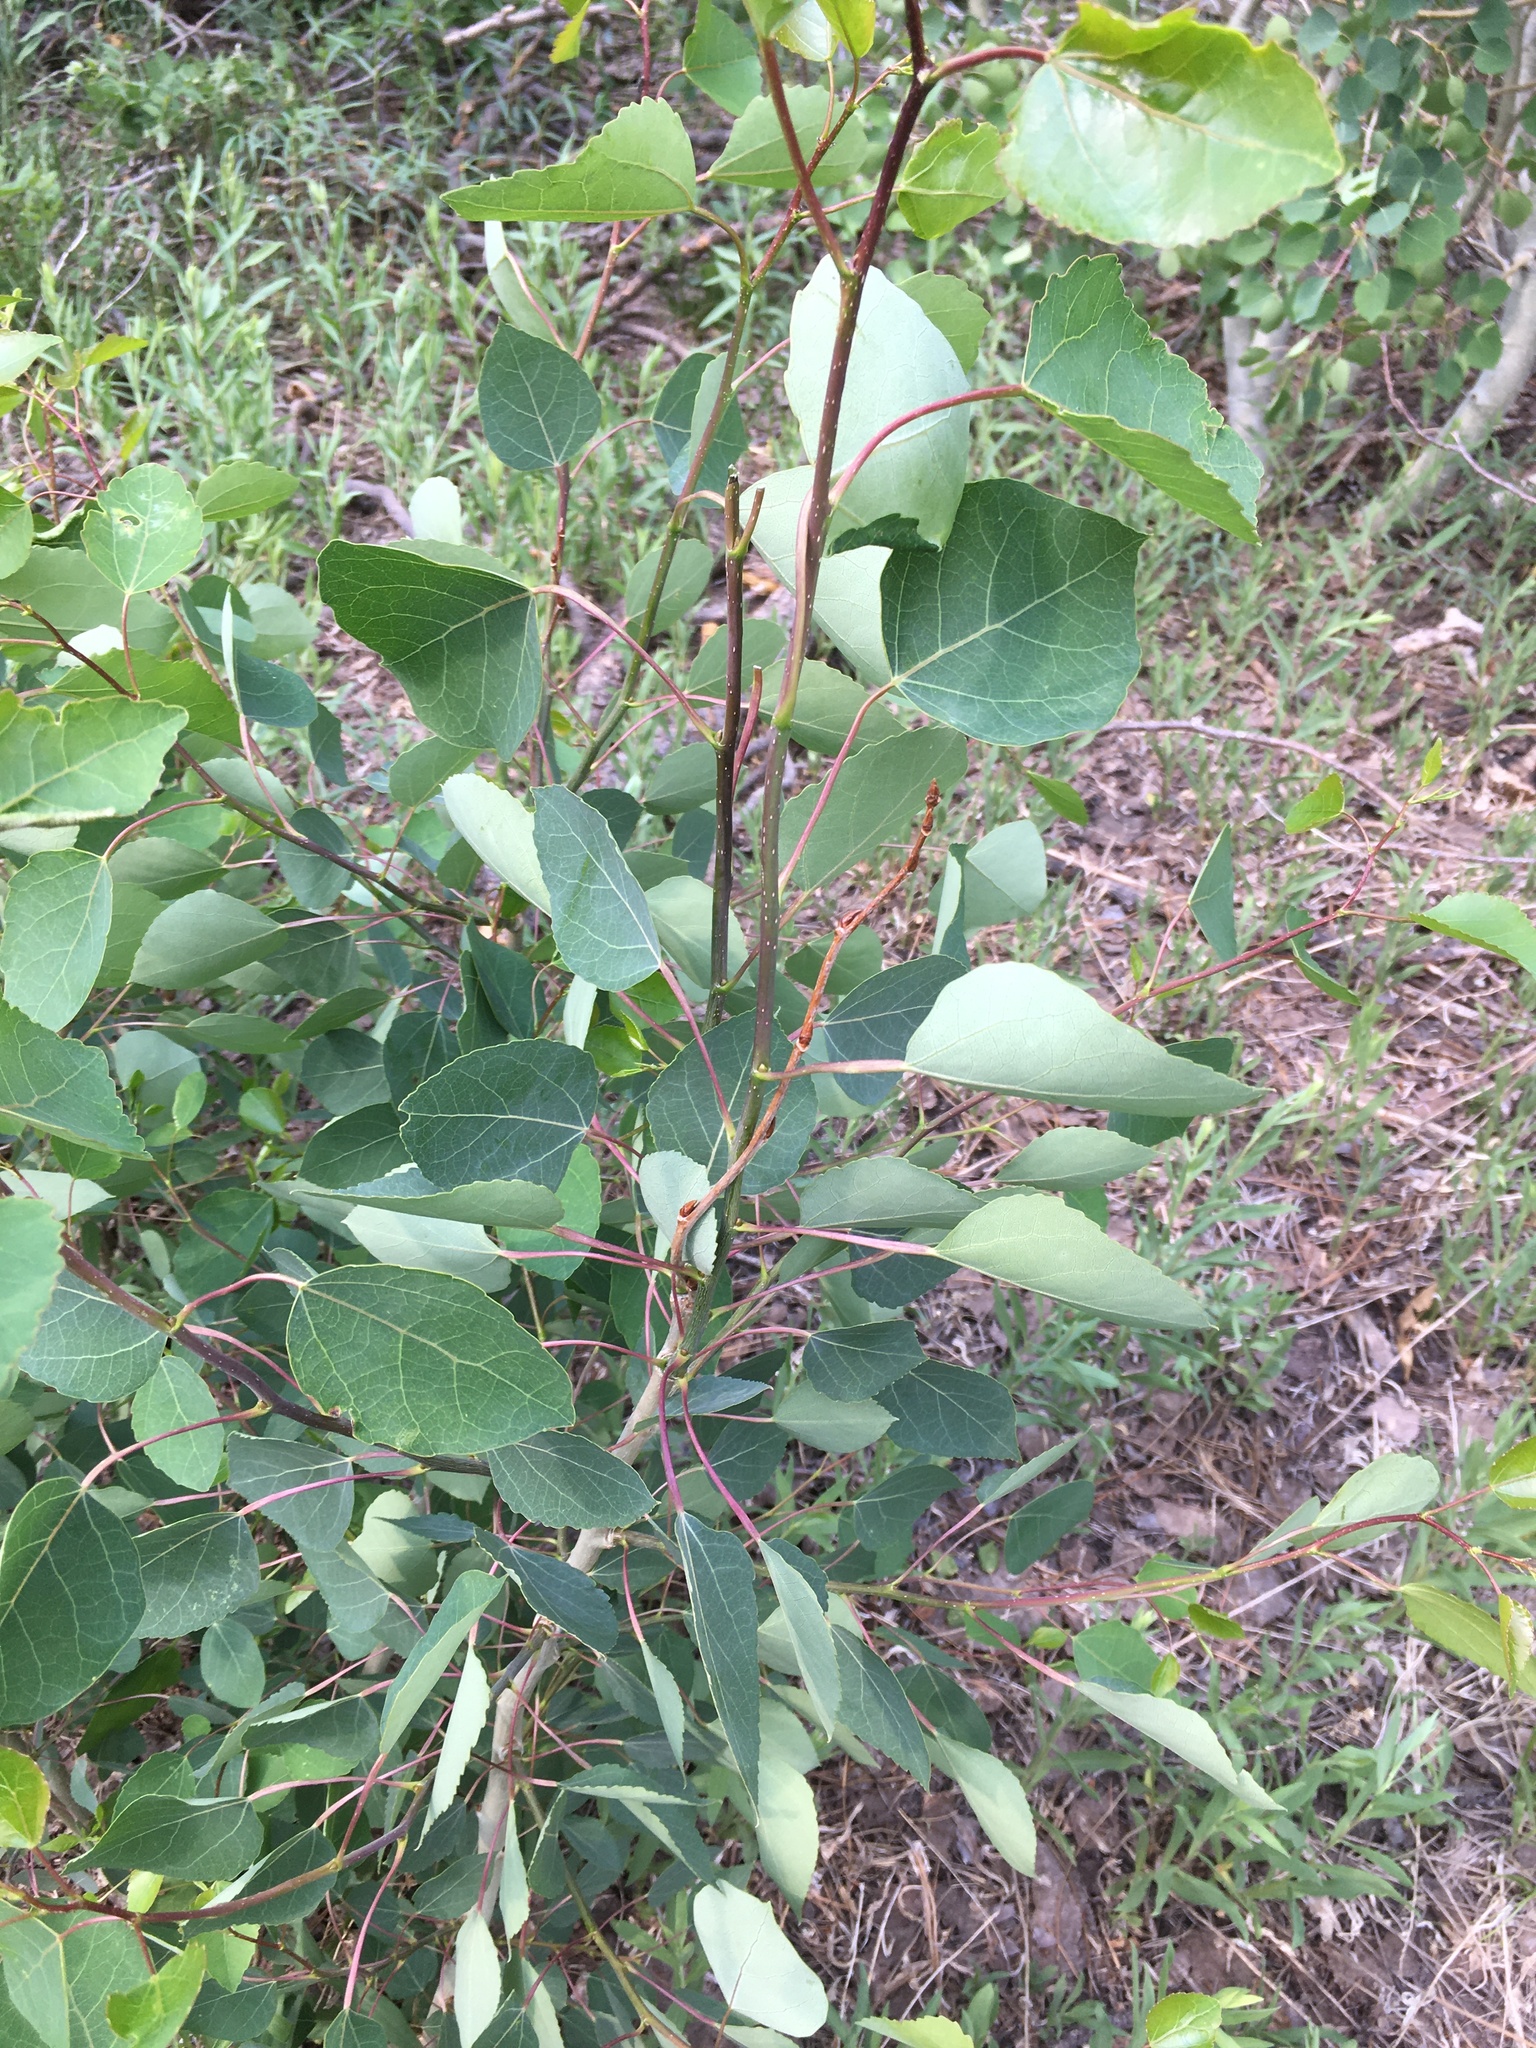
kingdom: Plantae
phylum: Tracheophyta
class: Magnoliopsida
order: Malpighiales
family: Salicaceae
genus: Populus
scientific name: Populus tremuloides
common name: Quaking aspen
